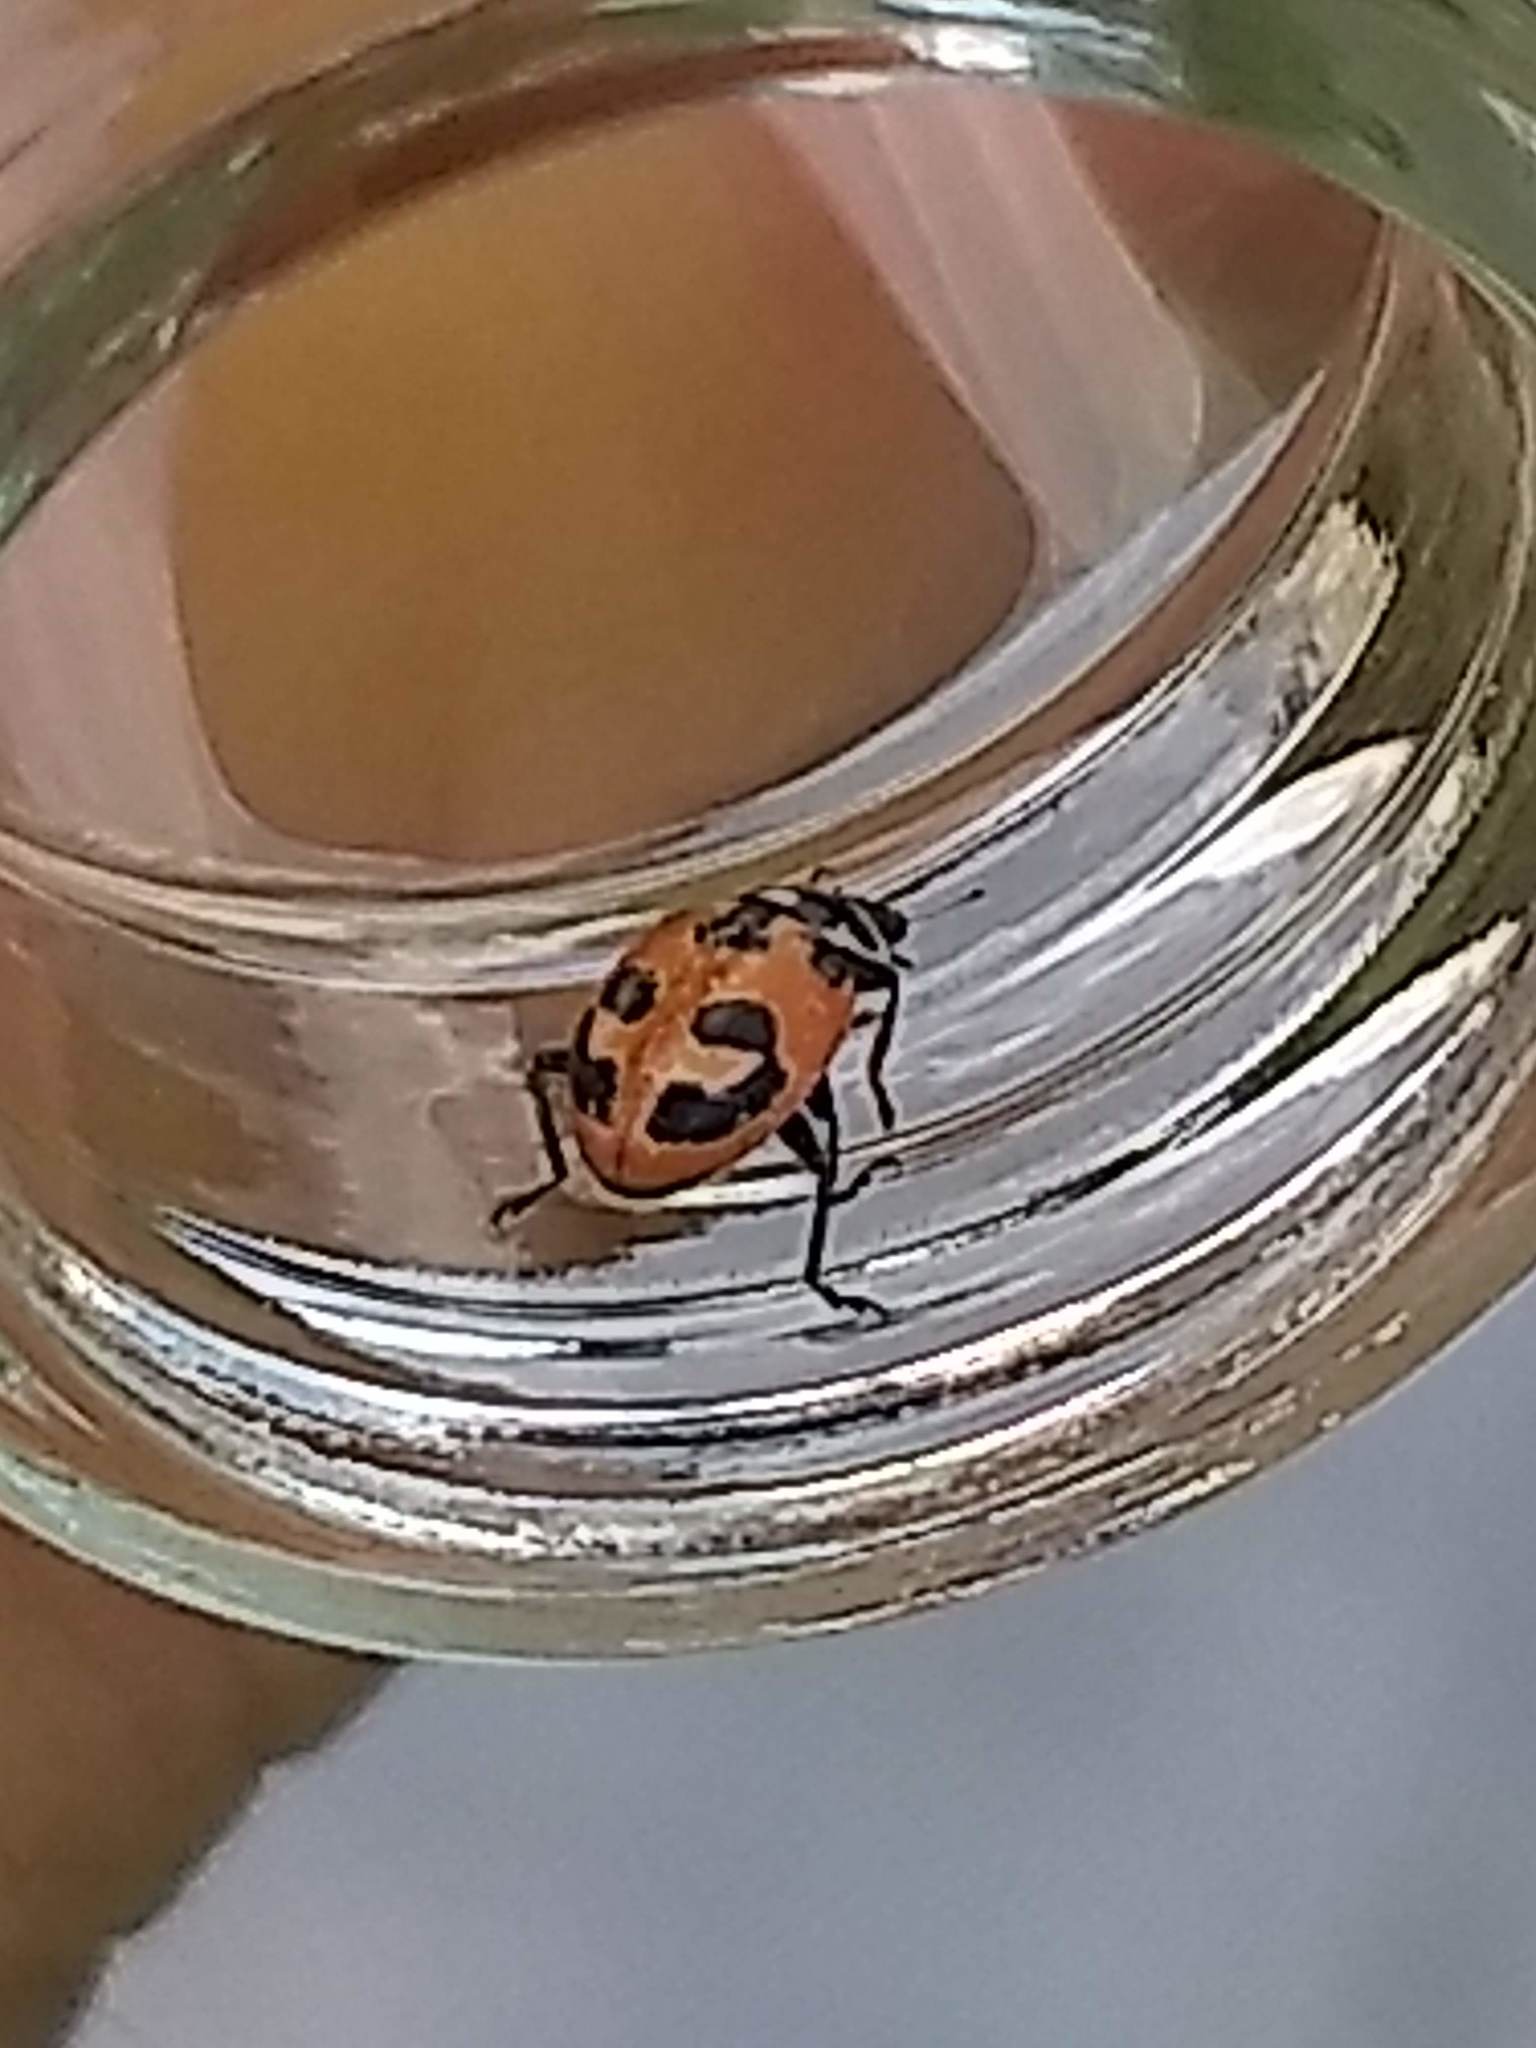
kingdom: Animalia
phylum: Arthropoda
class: Insecta
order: Coleoptera
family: Coccinellidae
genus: Hippodamia
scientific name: Hippodamia parenthesis
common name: Parenthesis lady beetle
